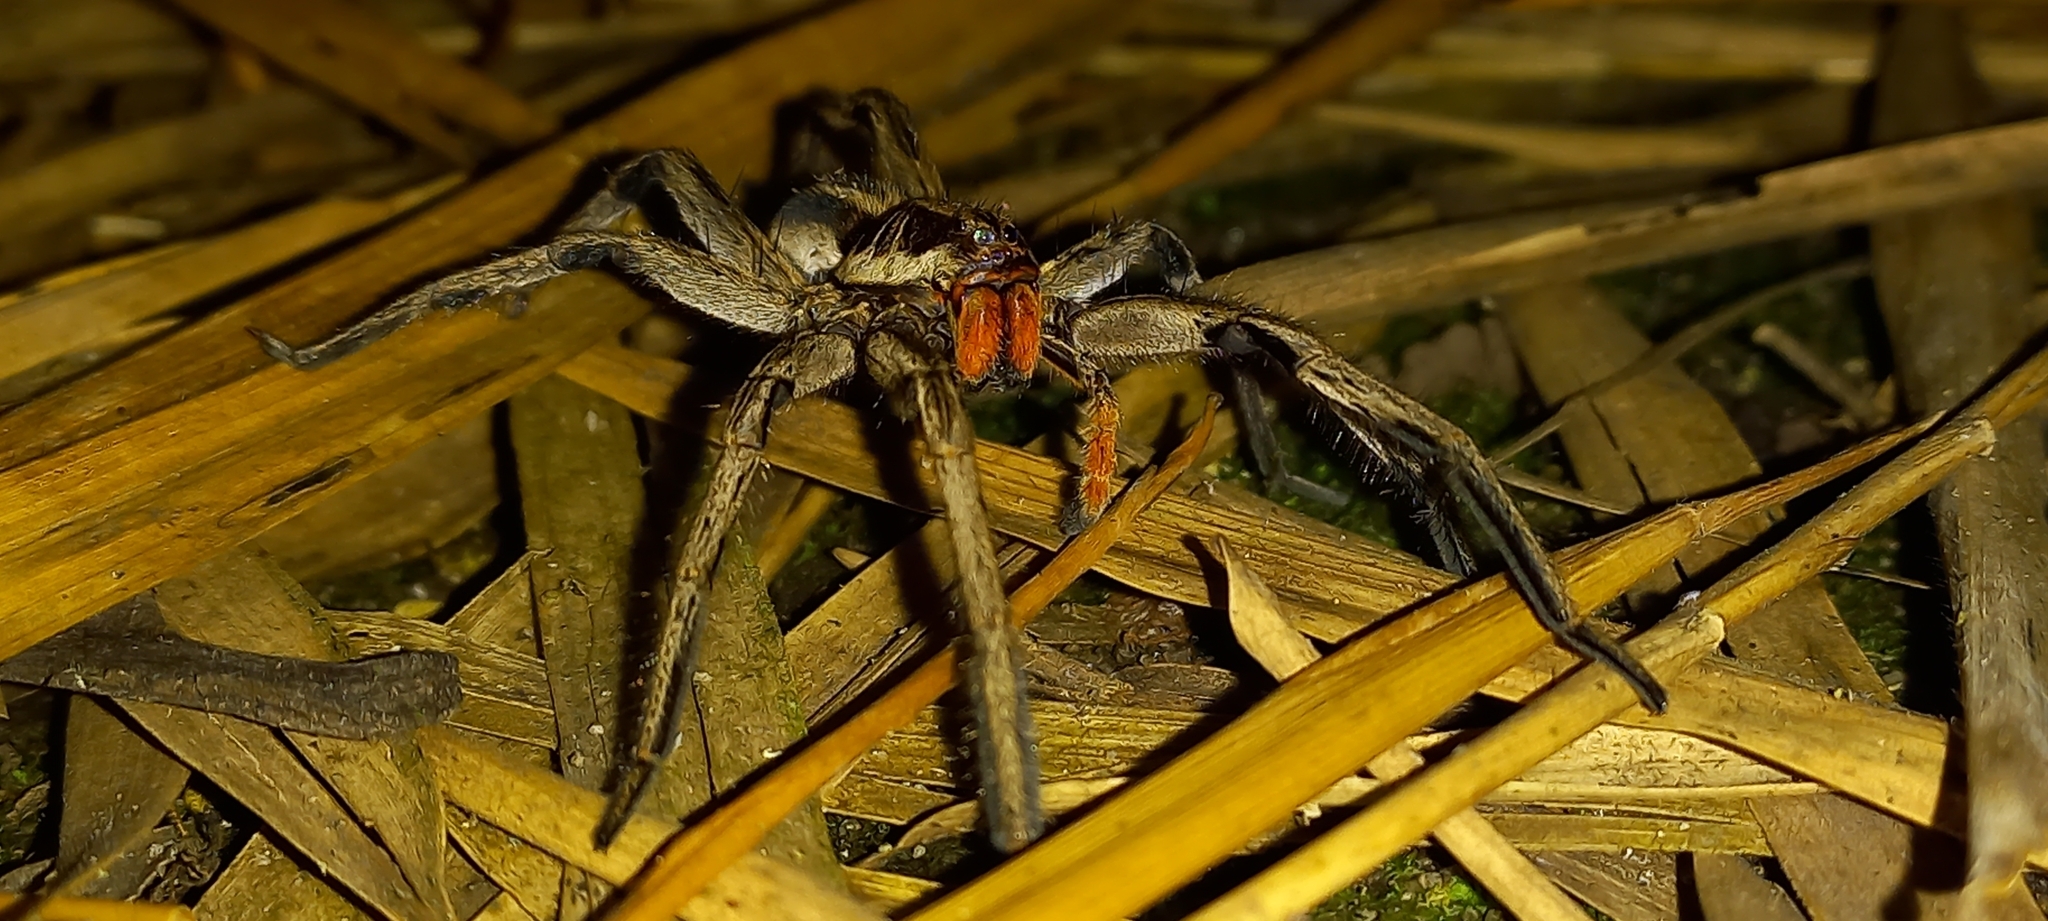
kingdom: Animalia
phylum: Arthropoda
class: Arachnida
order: Araneae
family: Lycosidae
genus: Lycosa
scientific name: Lycosa erythrognatha
